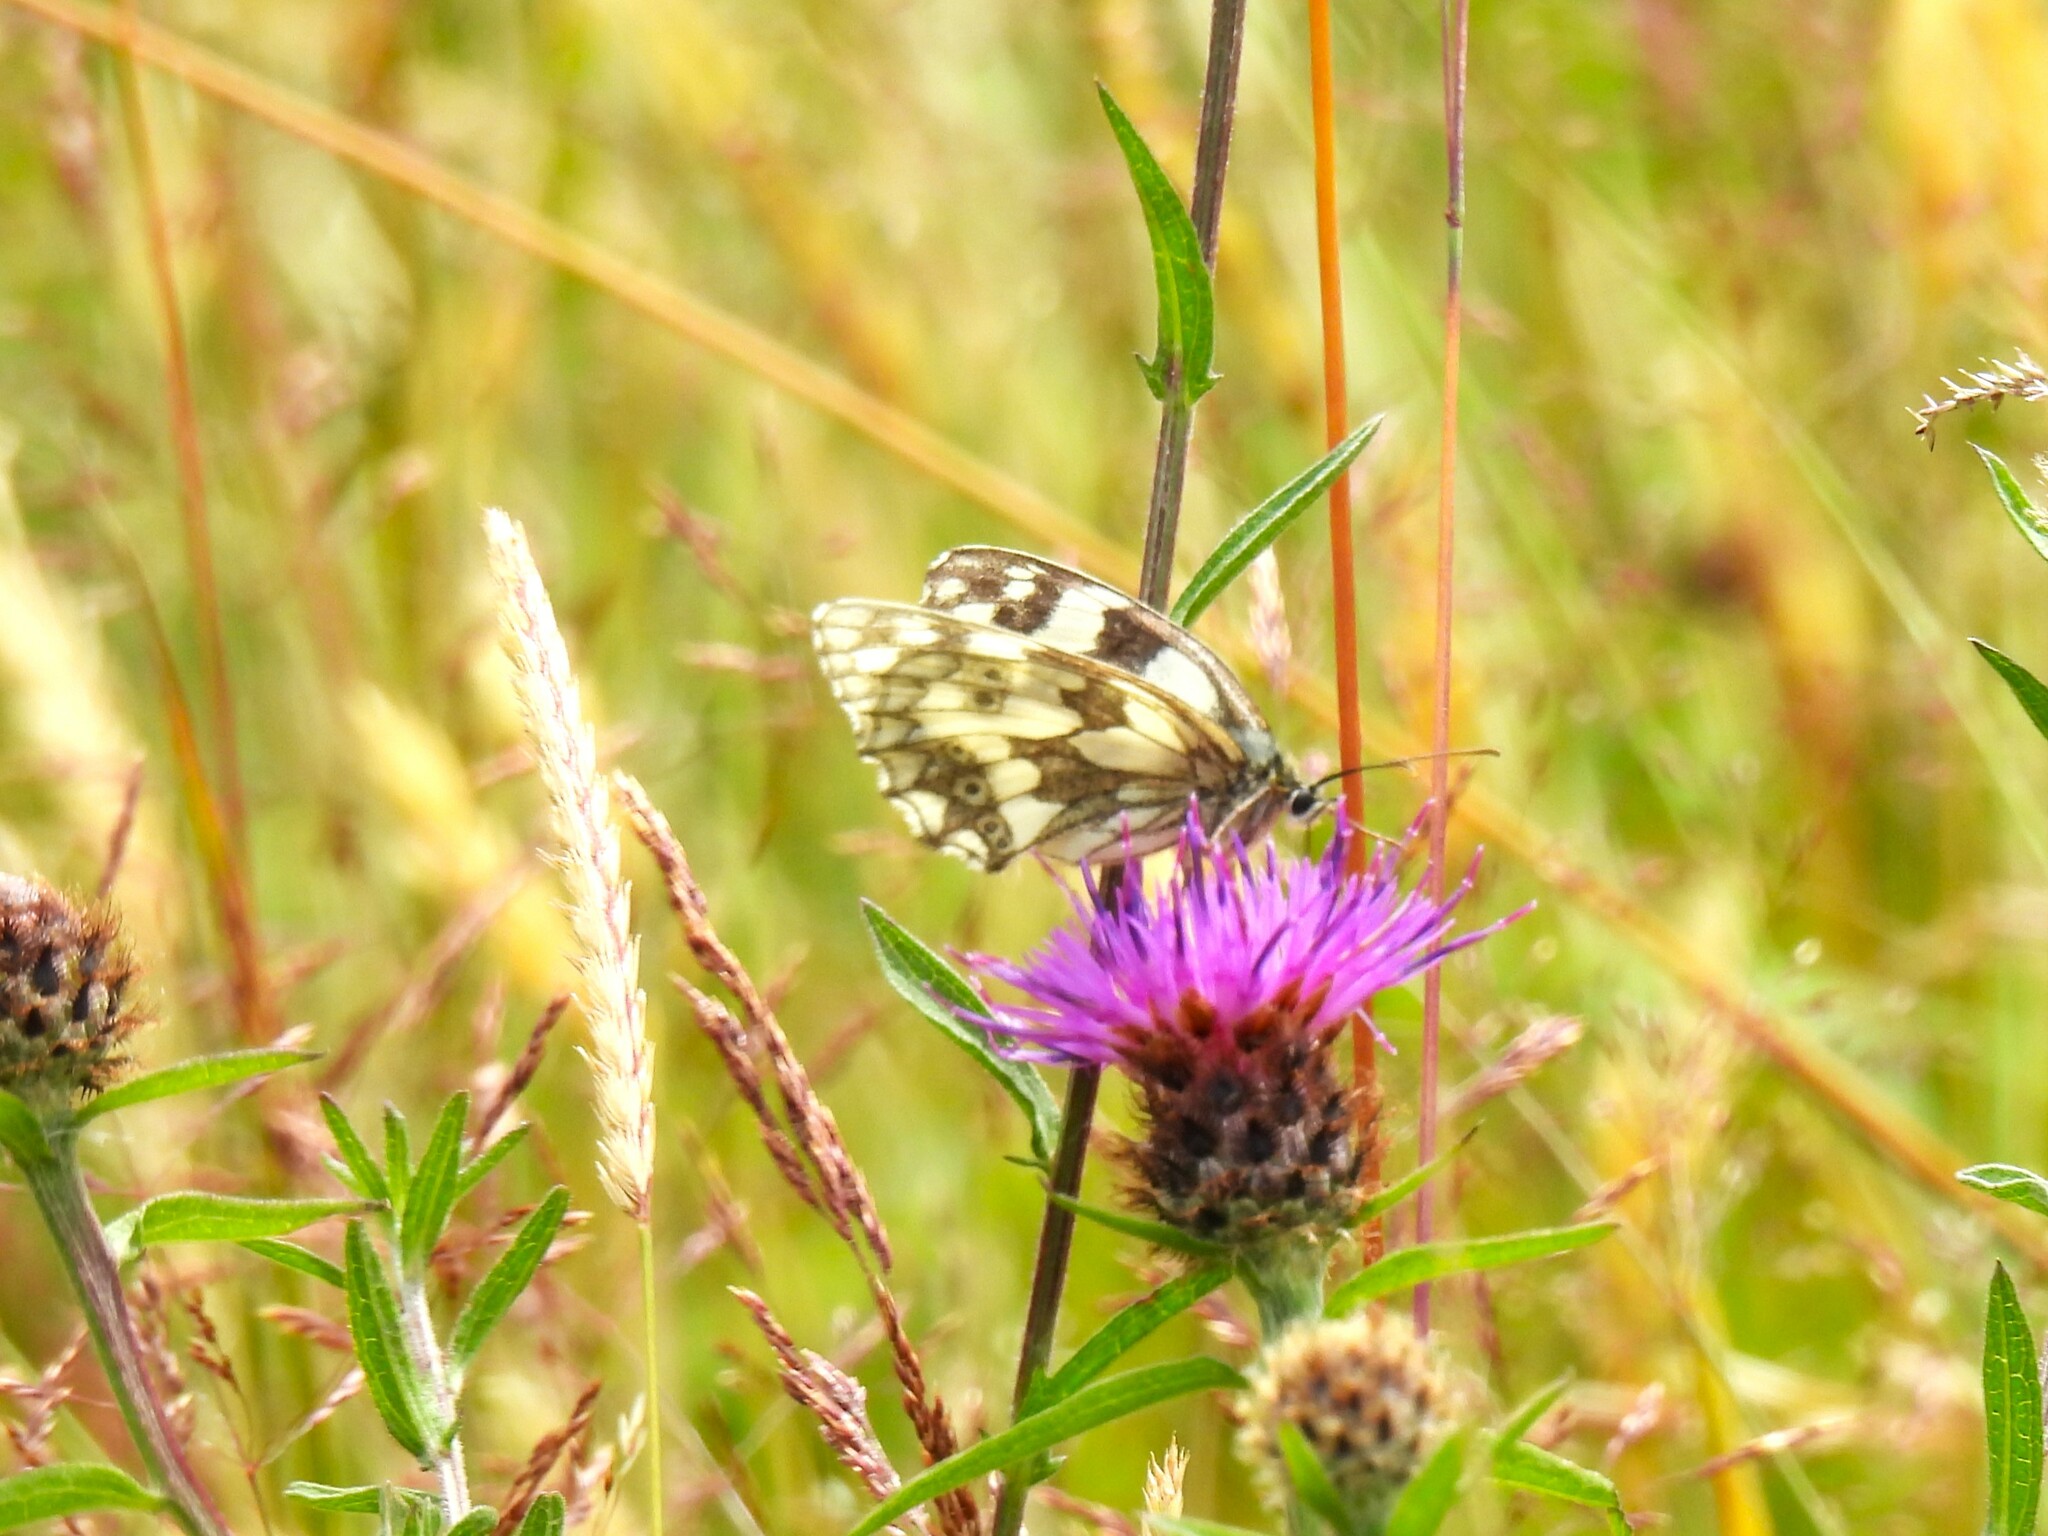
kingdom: Animalia
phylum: Arthropoda
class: Insecta
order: Lepidoptera
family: Nymphalidae
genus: Melanargia
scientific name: Melanargia galathea
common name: Marbled white
